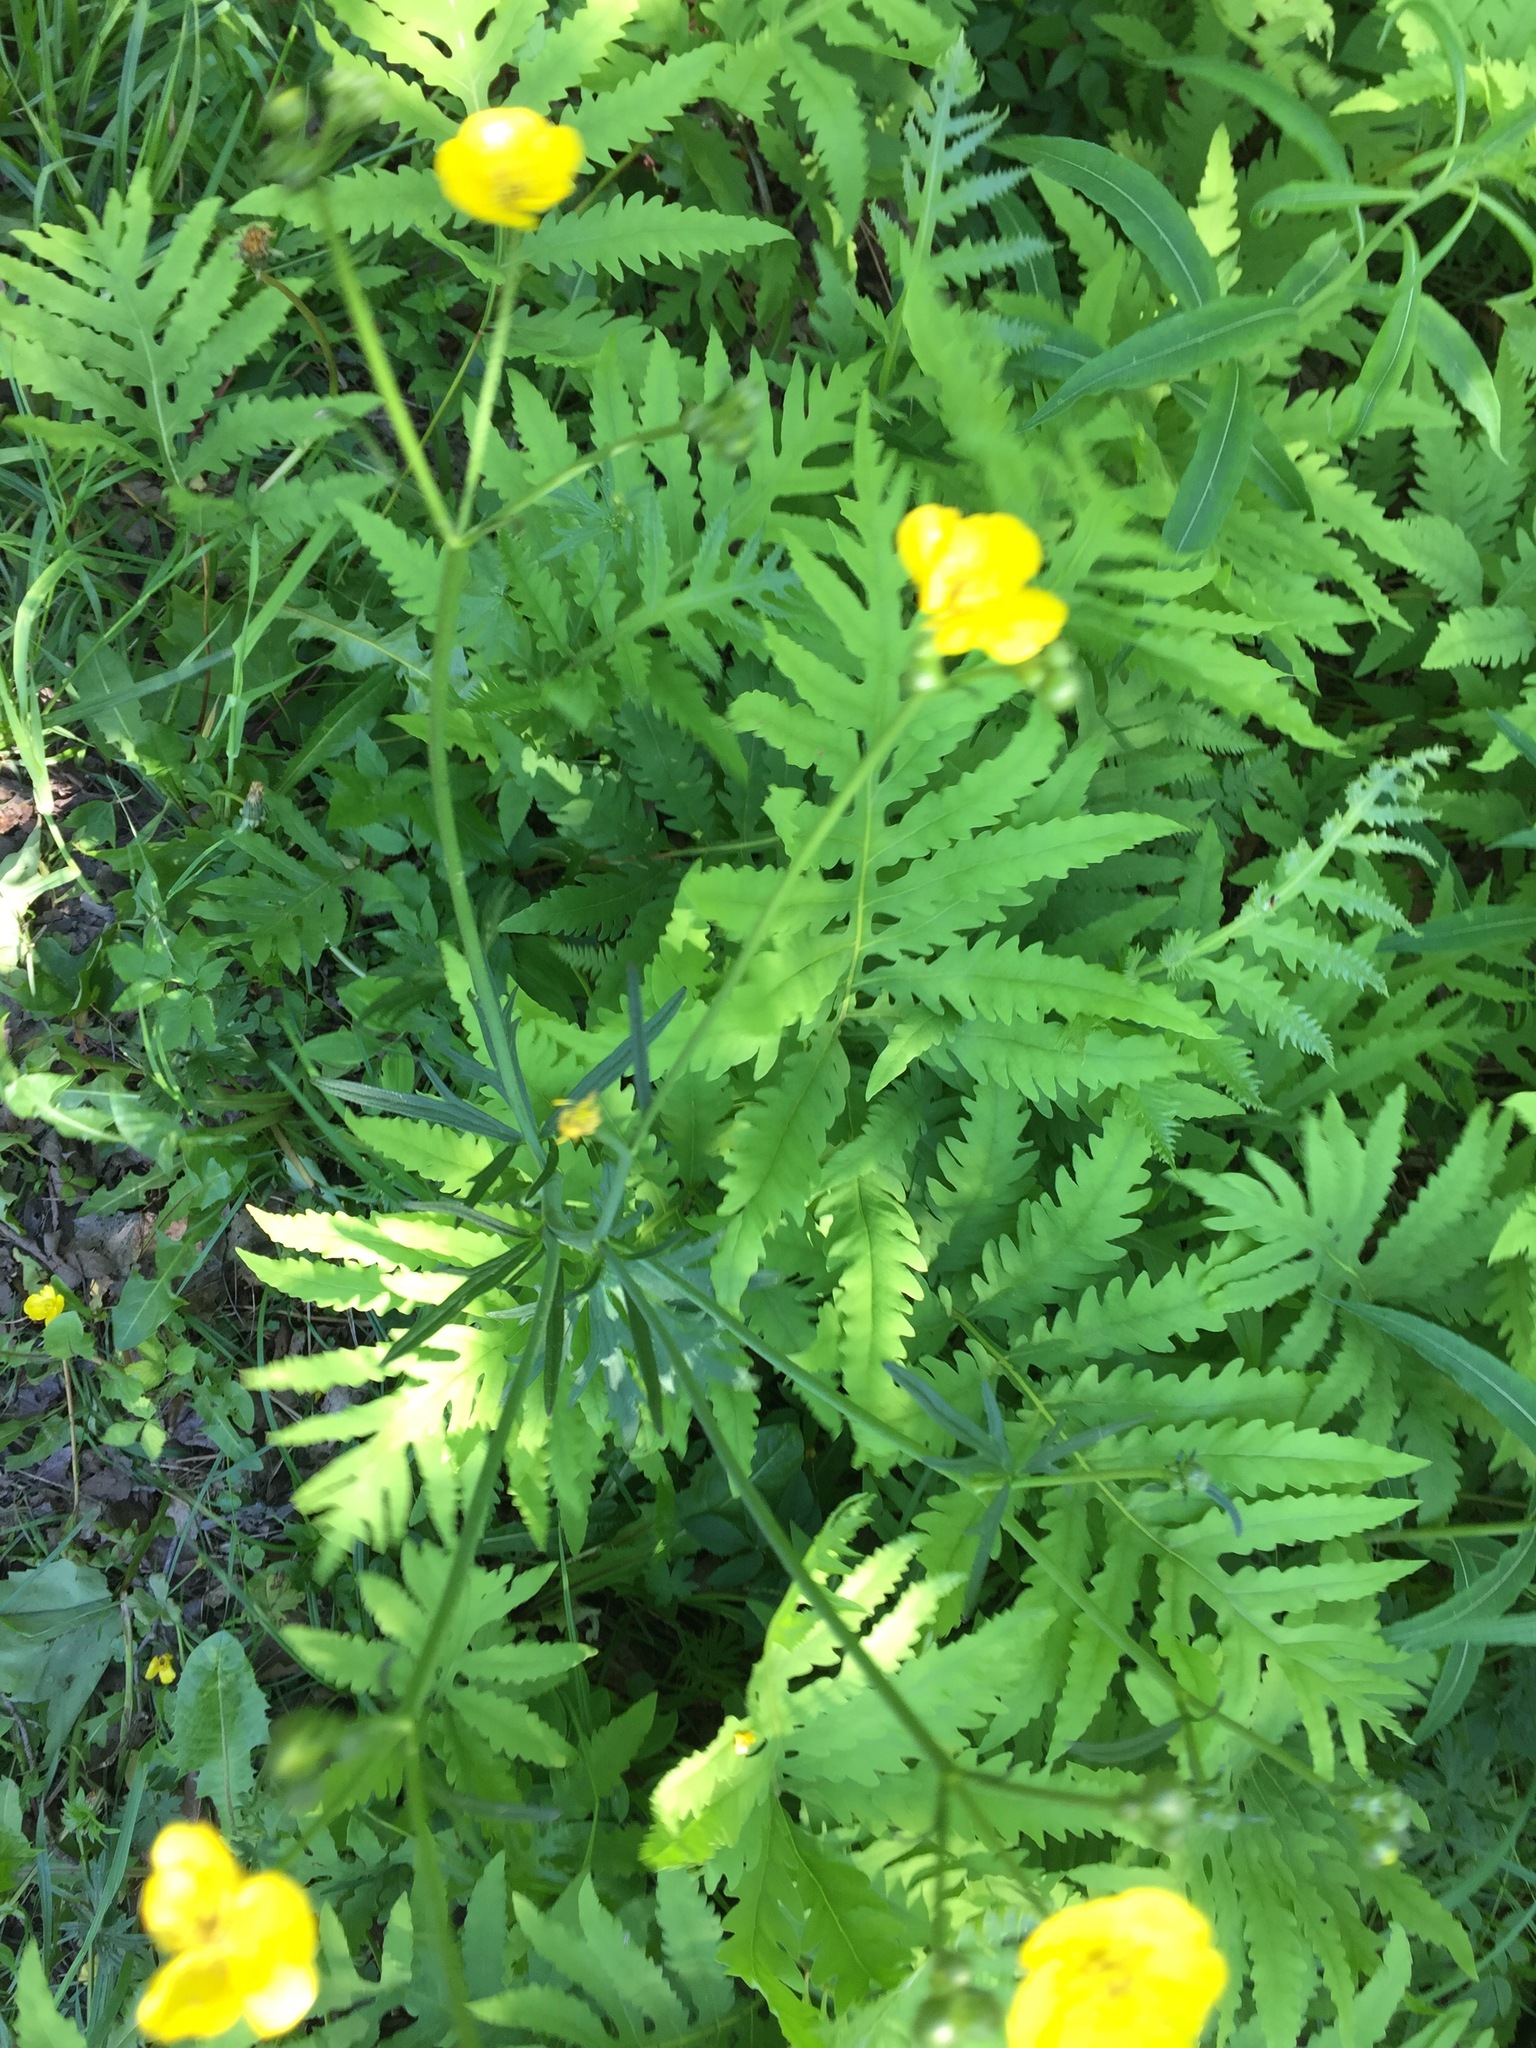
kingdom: Plantae
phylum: Tracheophyta
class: Magnoliopsida
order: Ranunculales
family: Ranunculaceae
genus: Ranunculus
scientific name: Ranunculus acris
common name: Meadow buttercup
